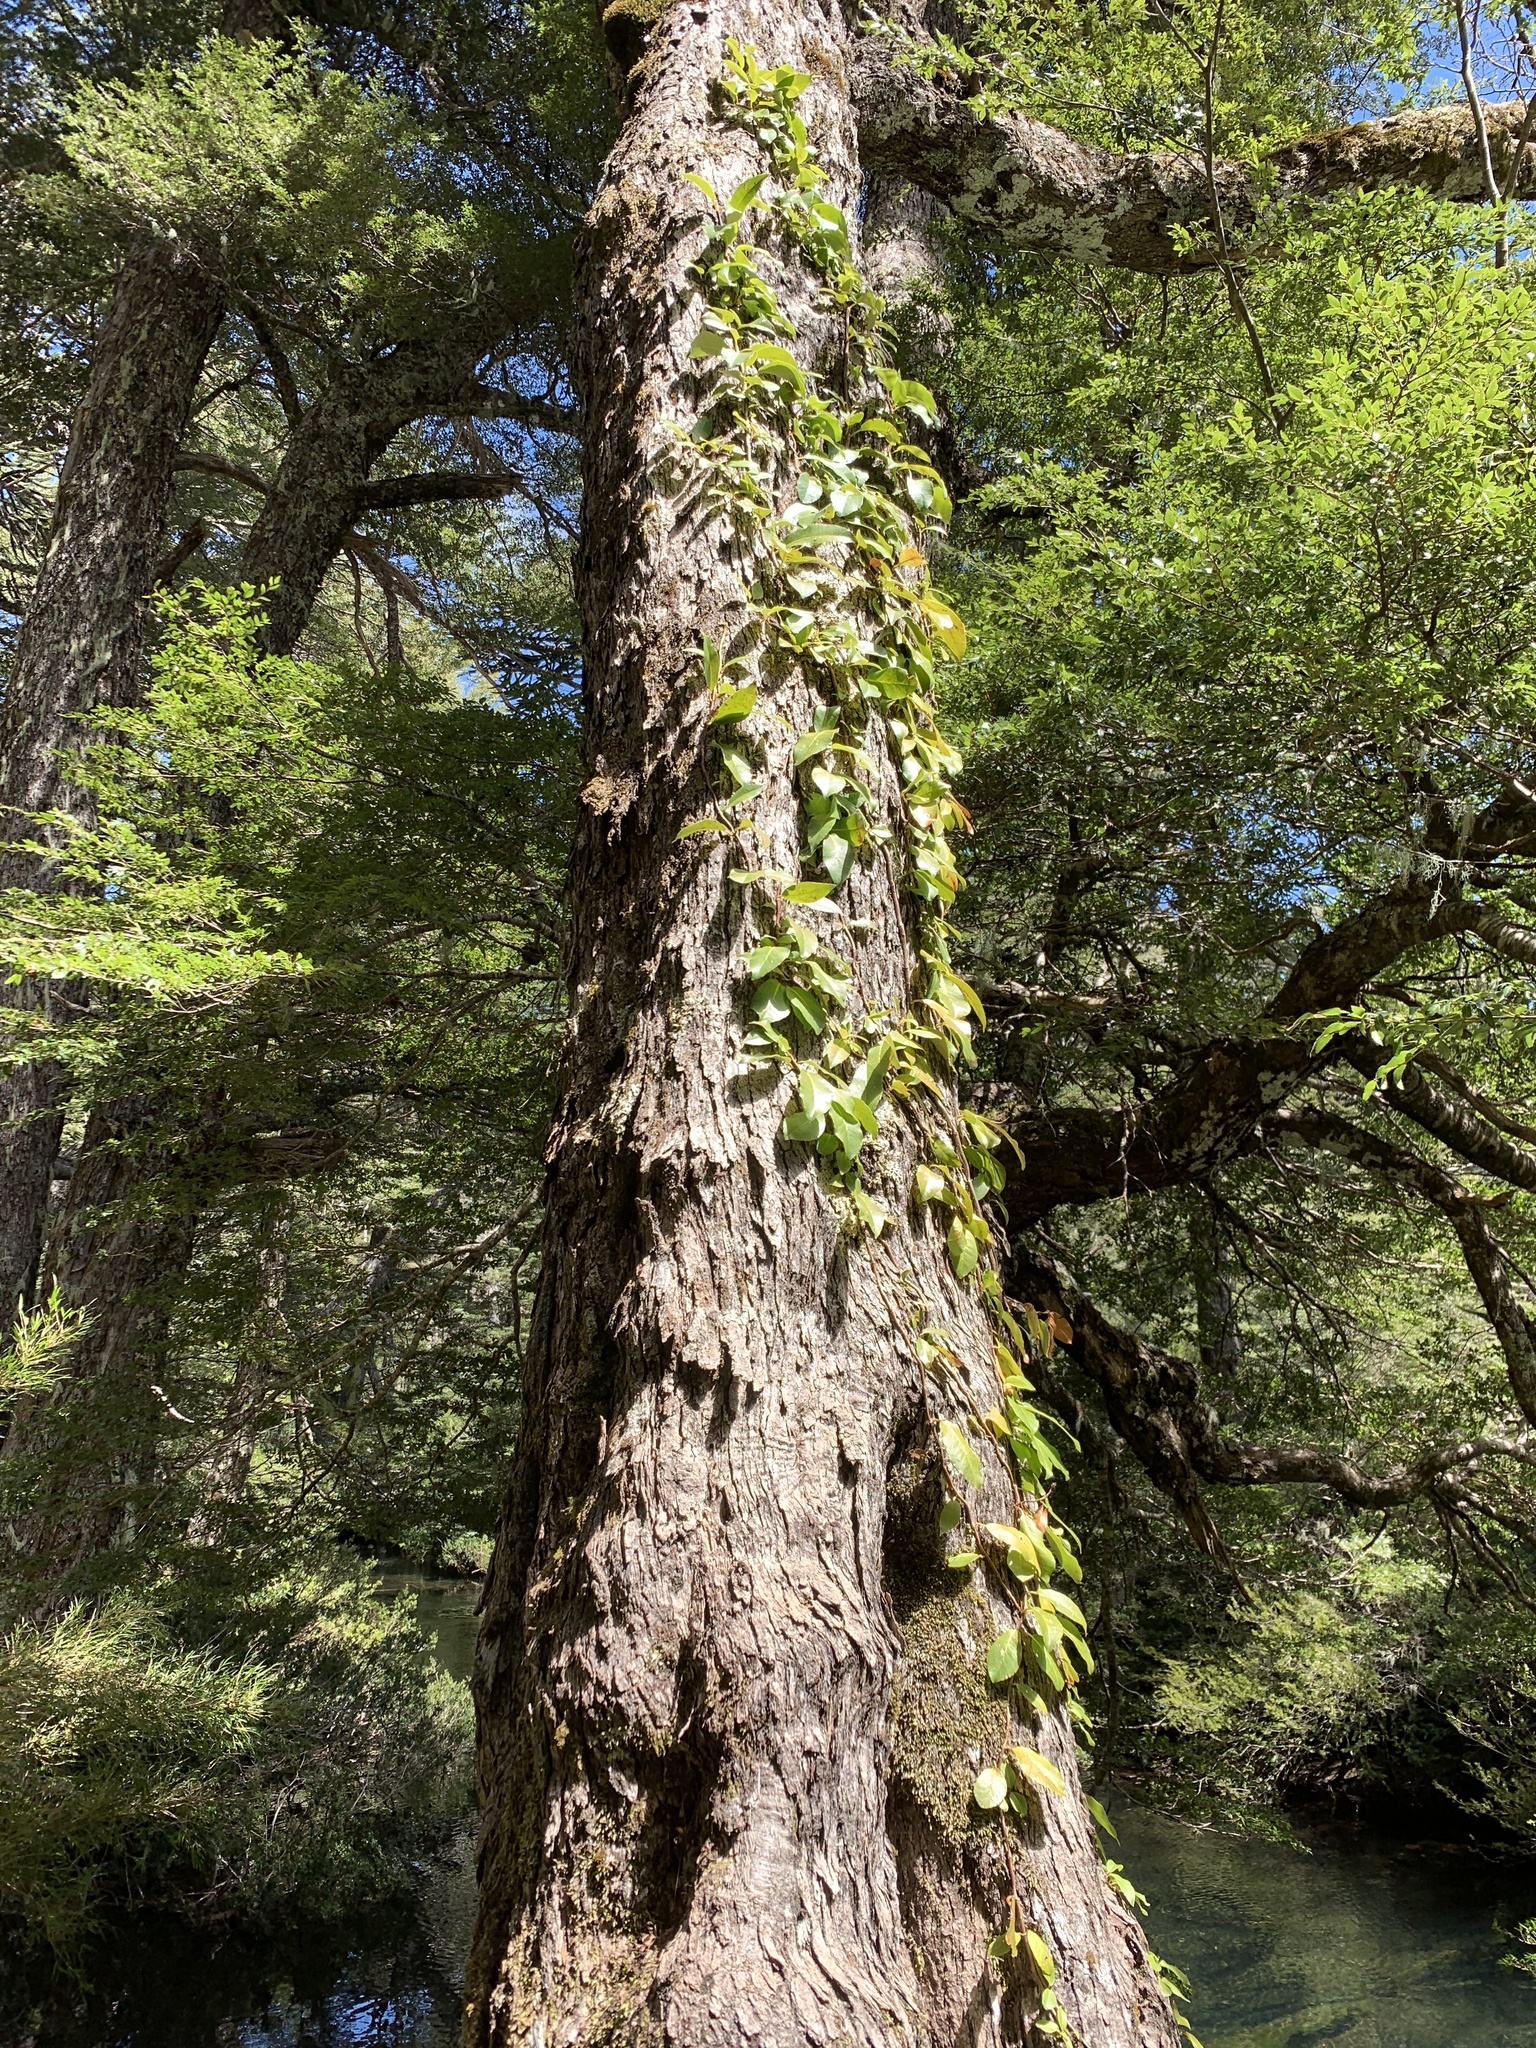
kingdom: Plantae
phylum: Tracheophyta
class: Magnoliopsida
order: Cornales
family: Hydrangeaceae
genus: Hydrangea
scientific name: Hydrangea serratifolia
